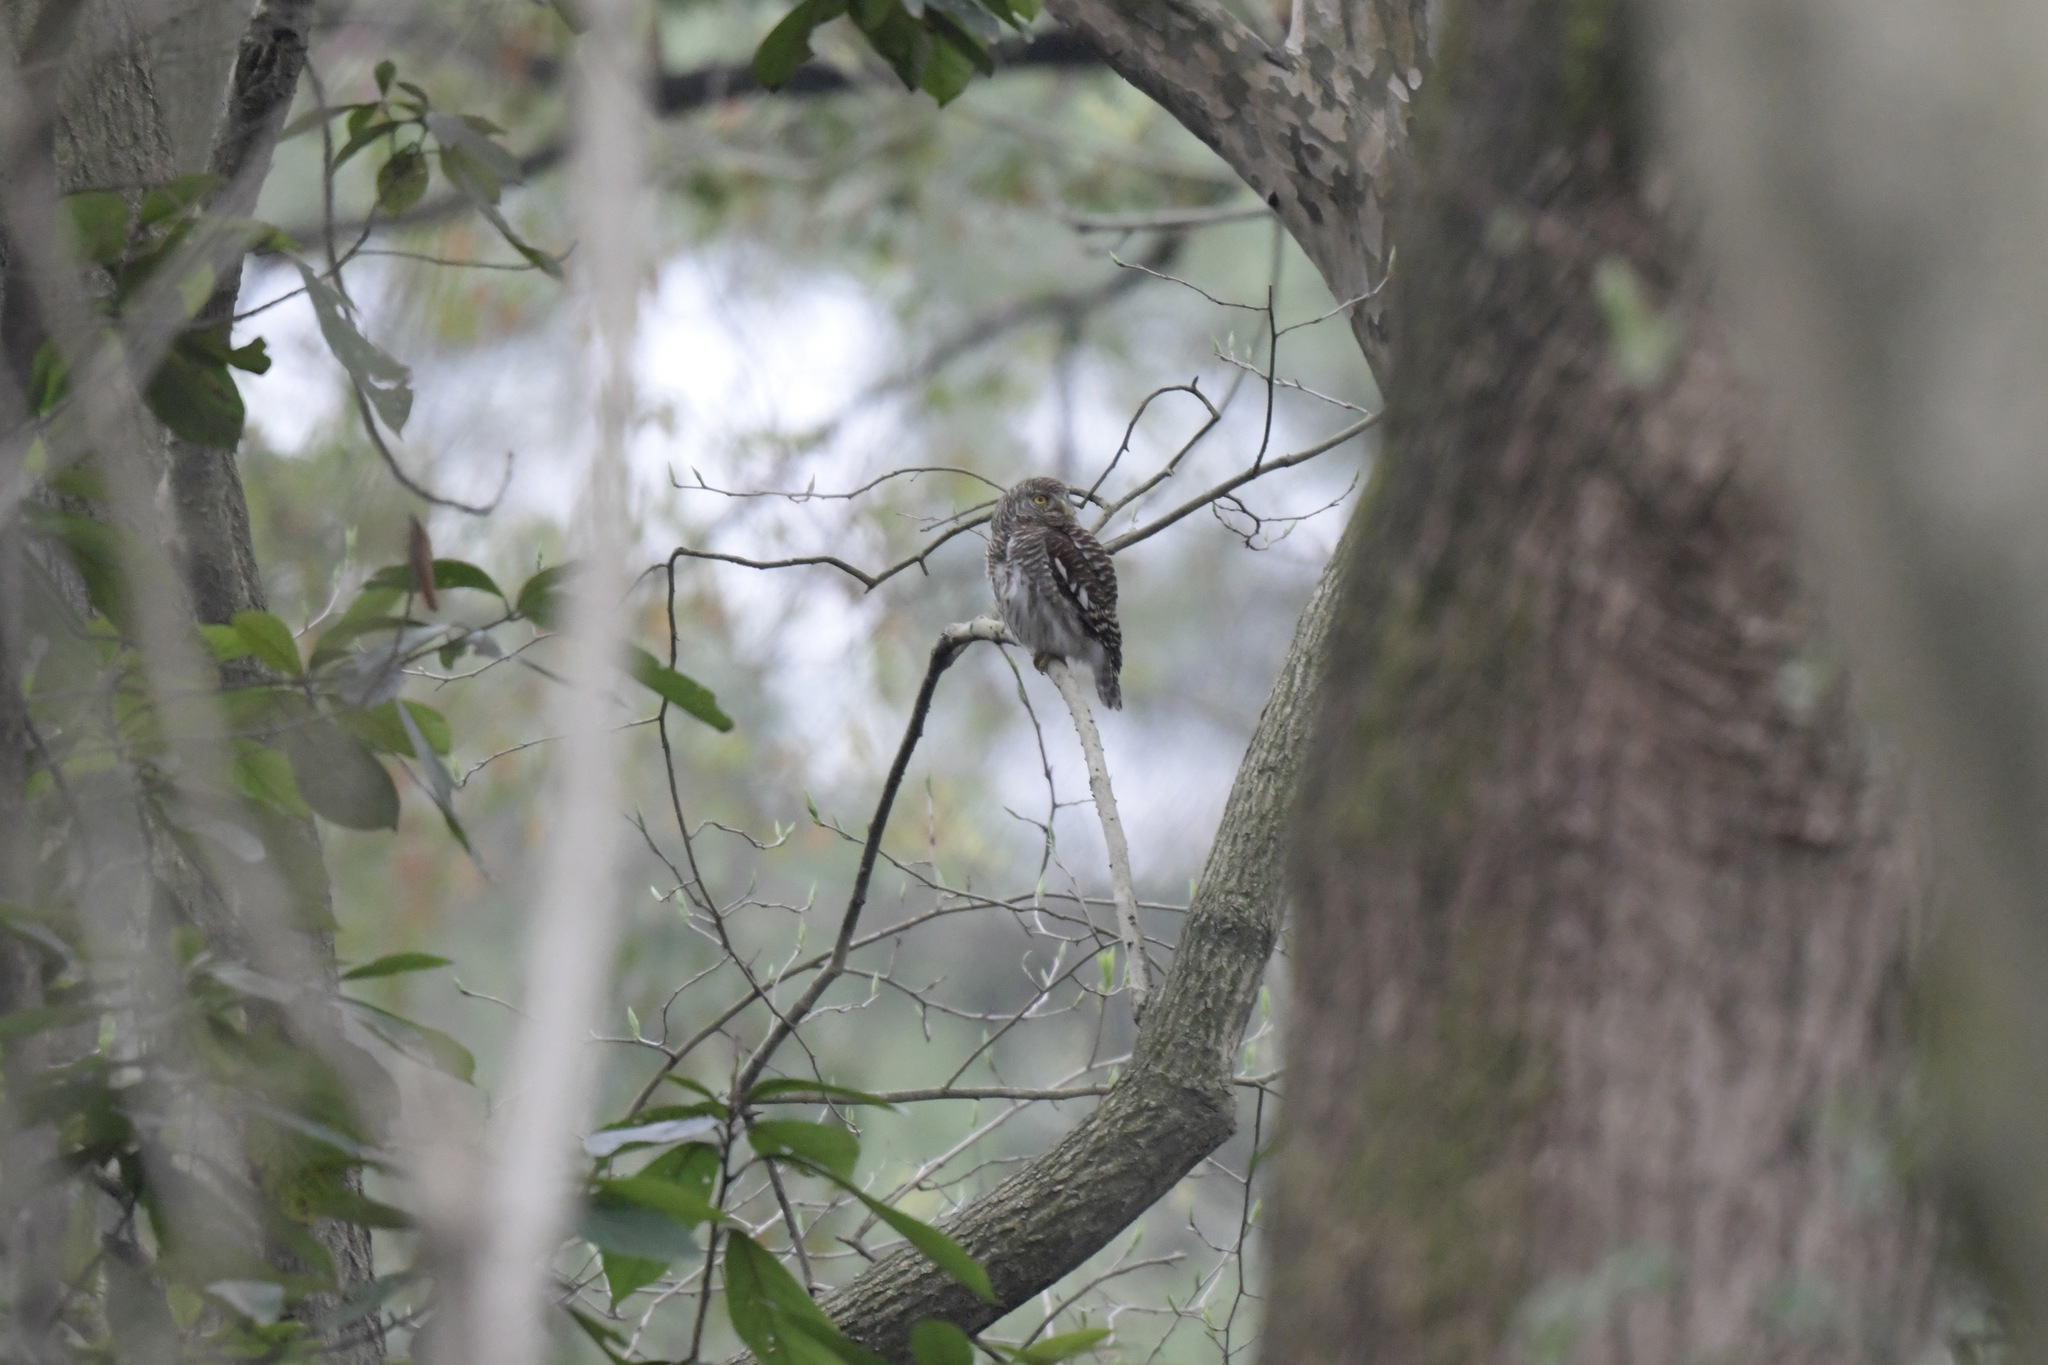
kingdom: Animalia
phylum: Chordata
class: Aves
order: Strigiformes
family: Strigidae
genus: Glaucidium
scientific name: Glaucidium cuculoides
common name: Asian barred owlet
